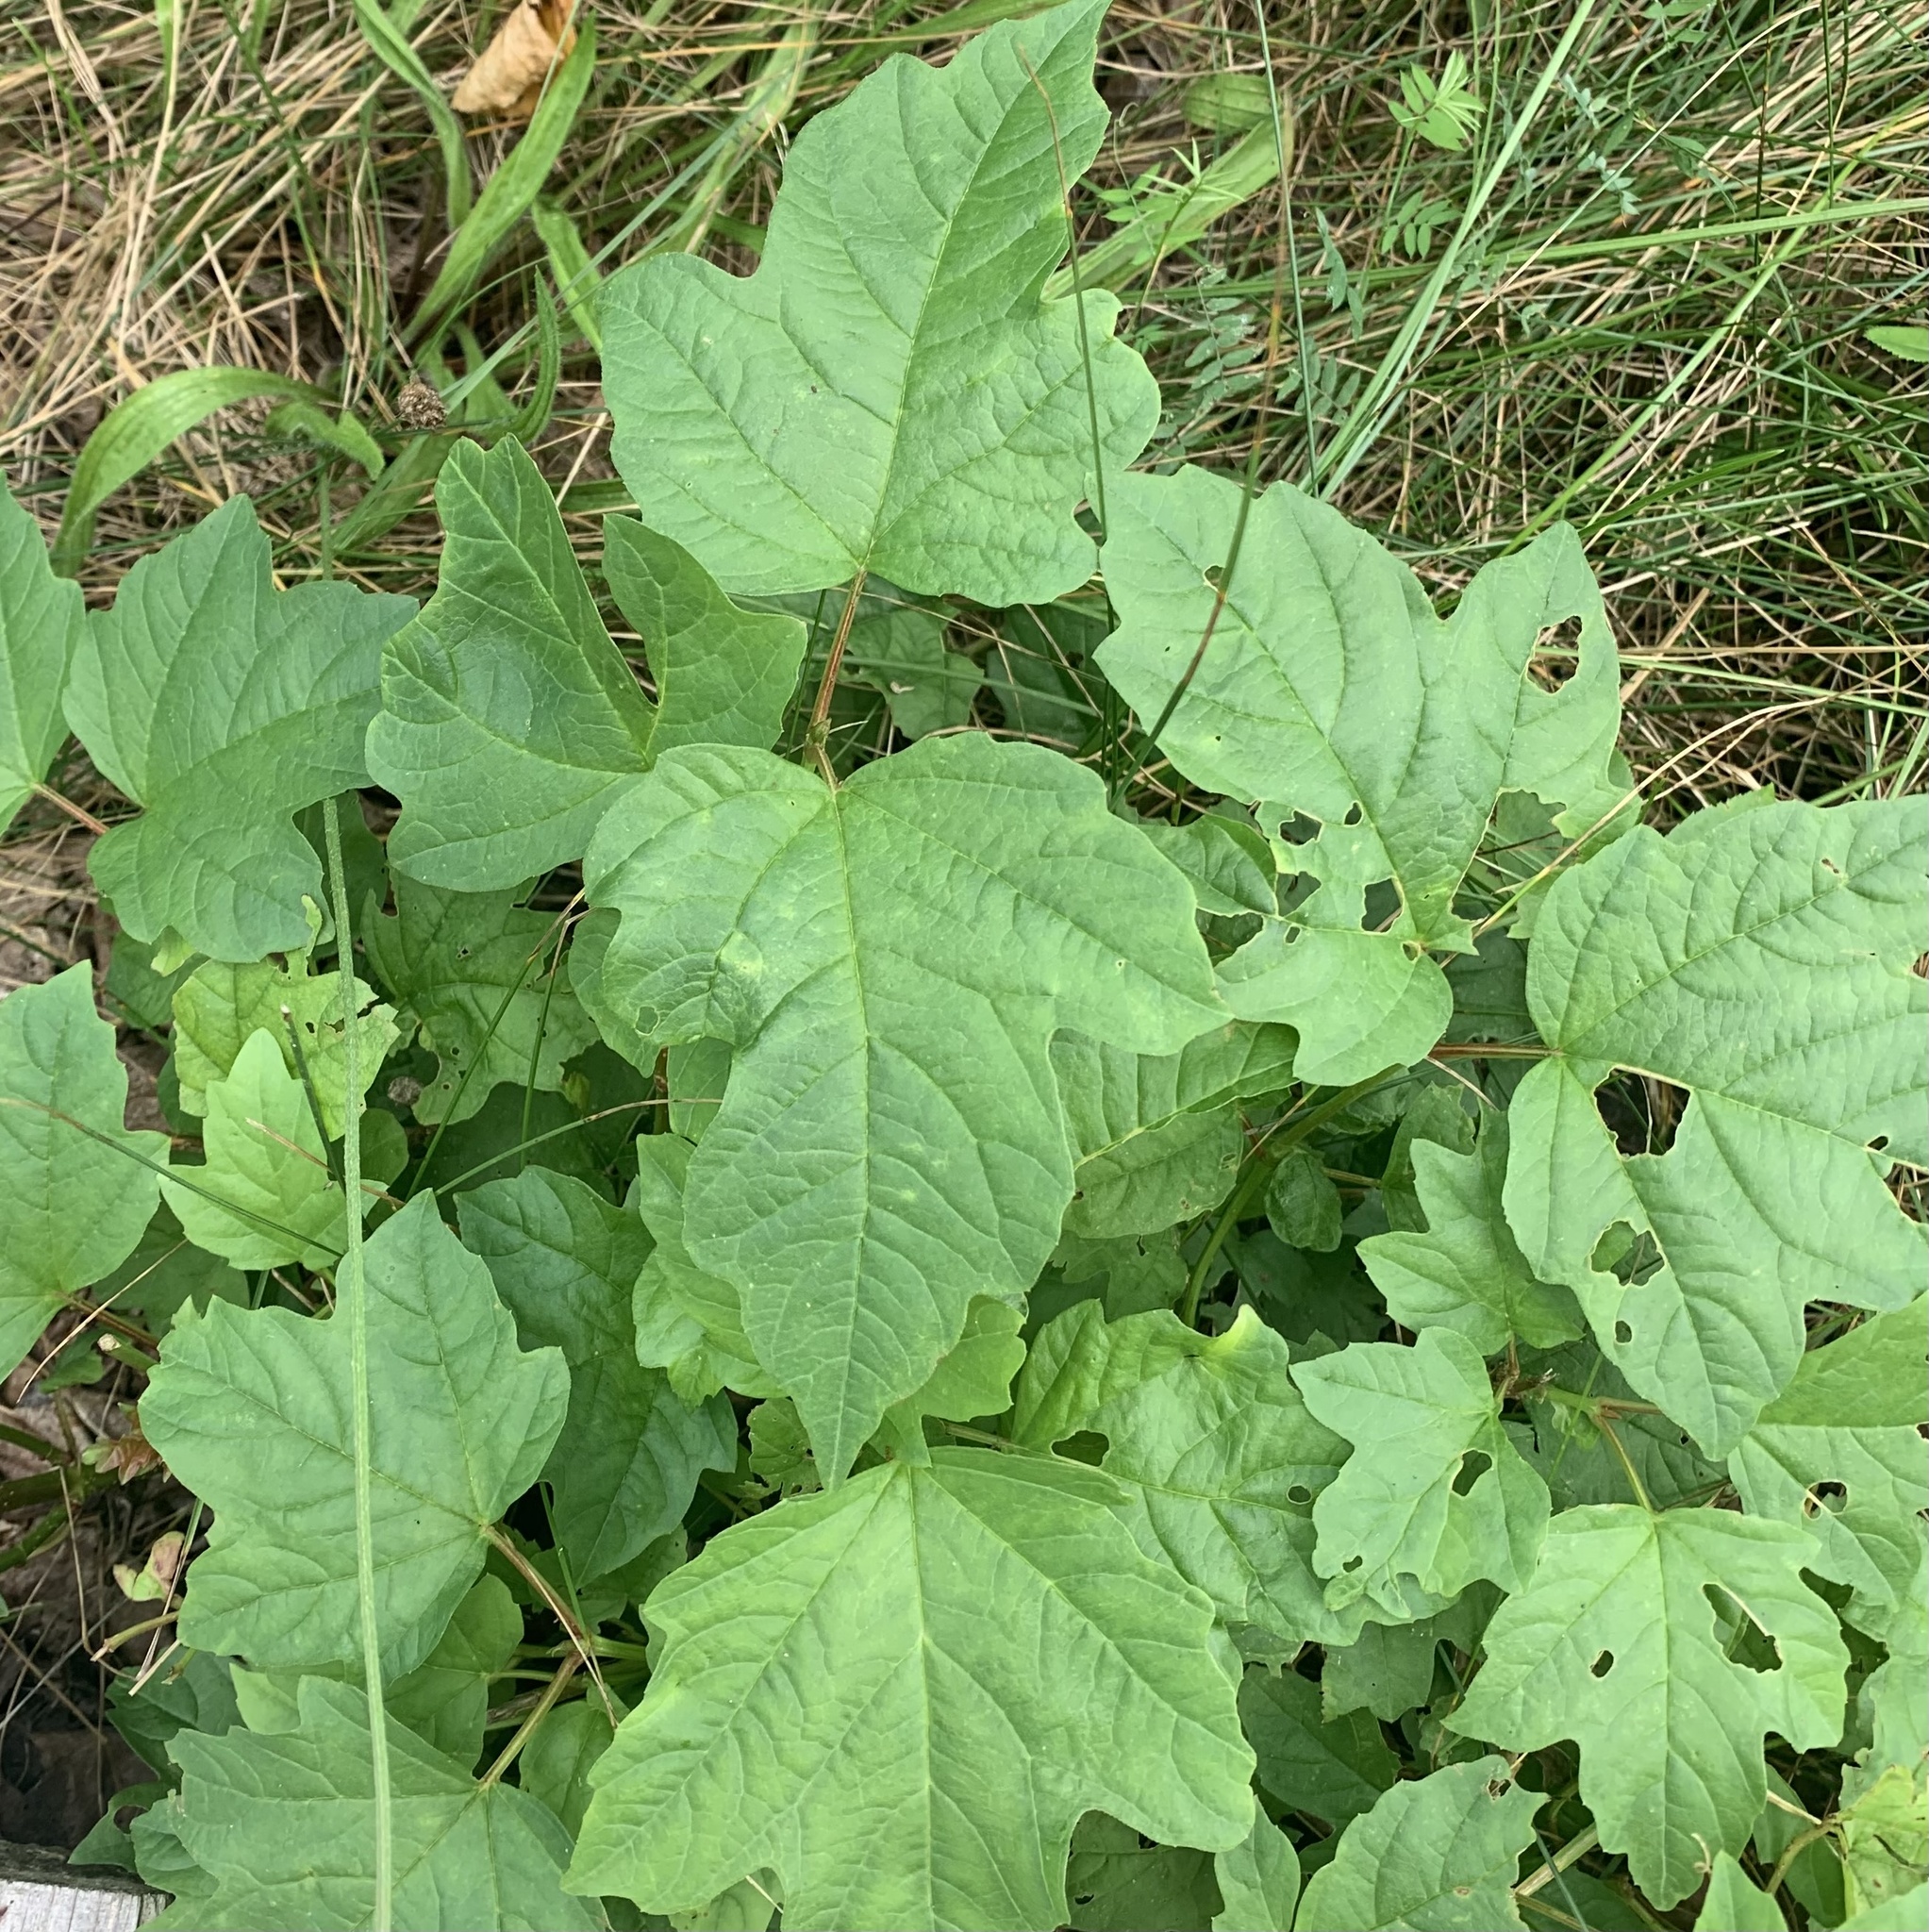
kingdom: Plantae
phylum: Tracheophyta
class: Magnoliopsida
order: Dipsacales
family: Viburnaceae
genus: Viburnum
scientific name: Viburnum opulus
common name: Guelder-rose
